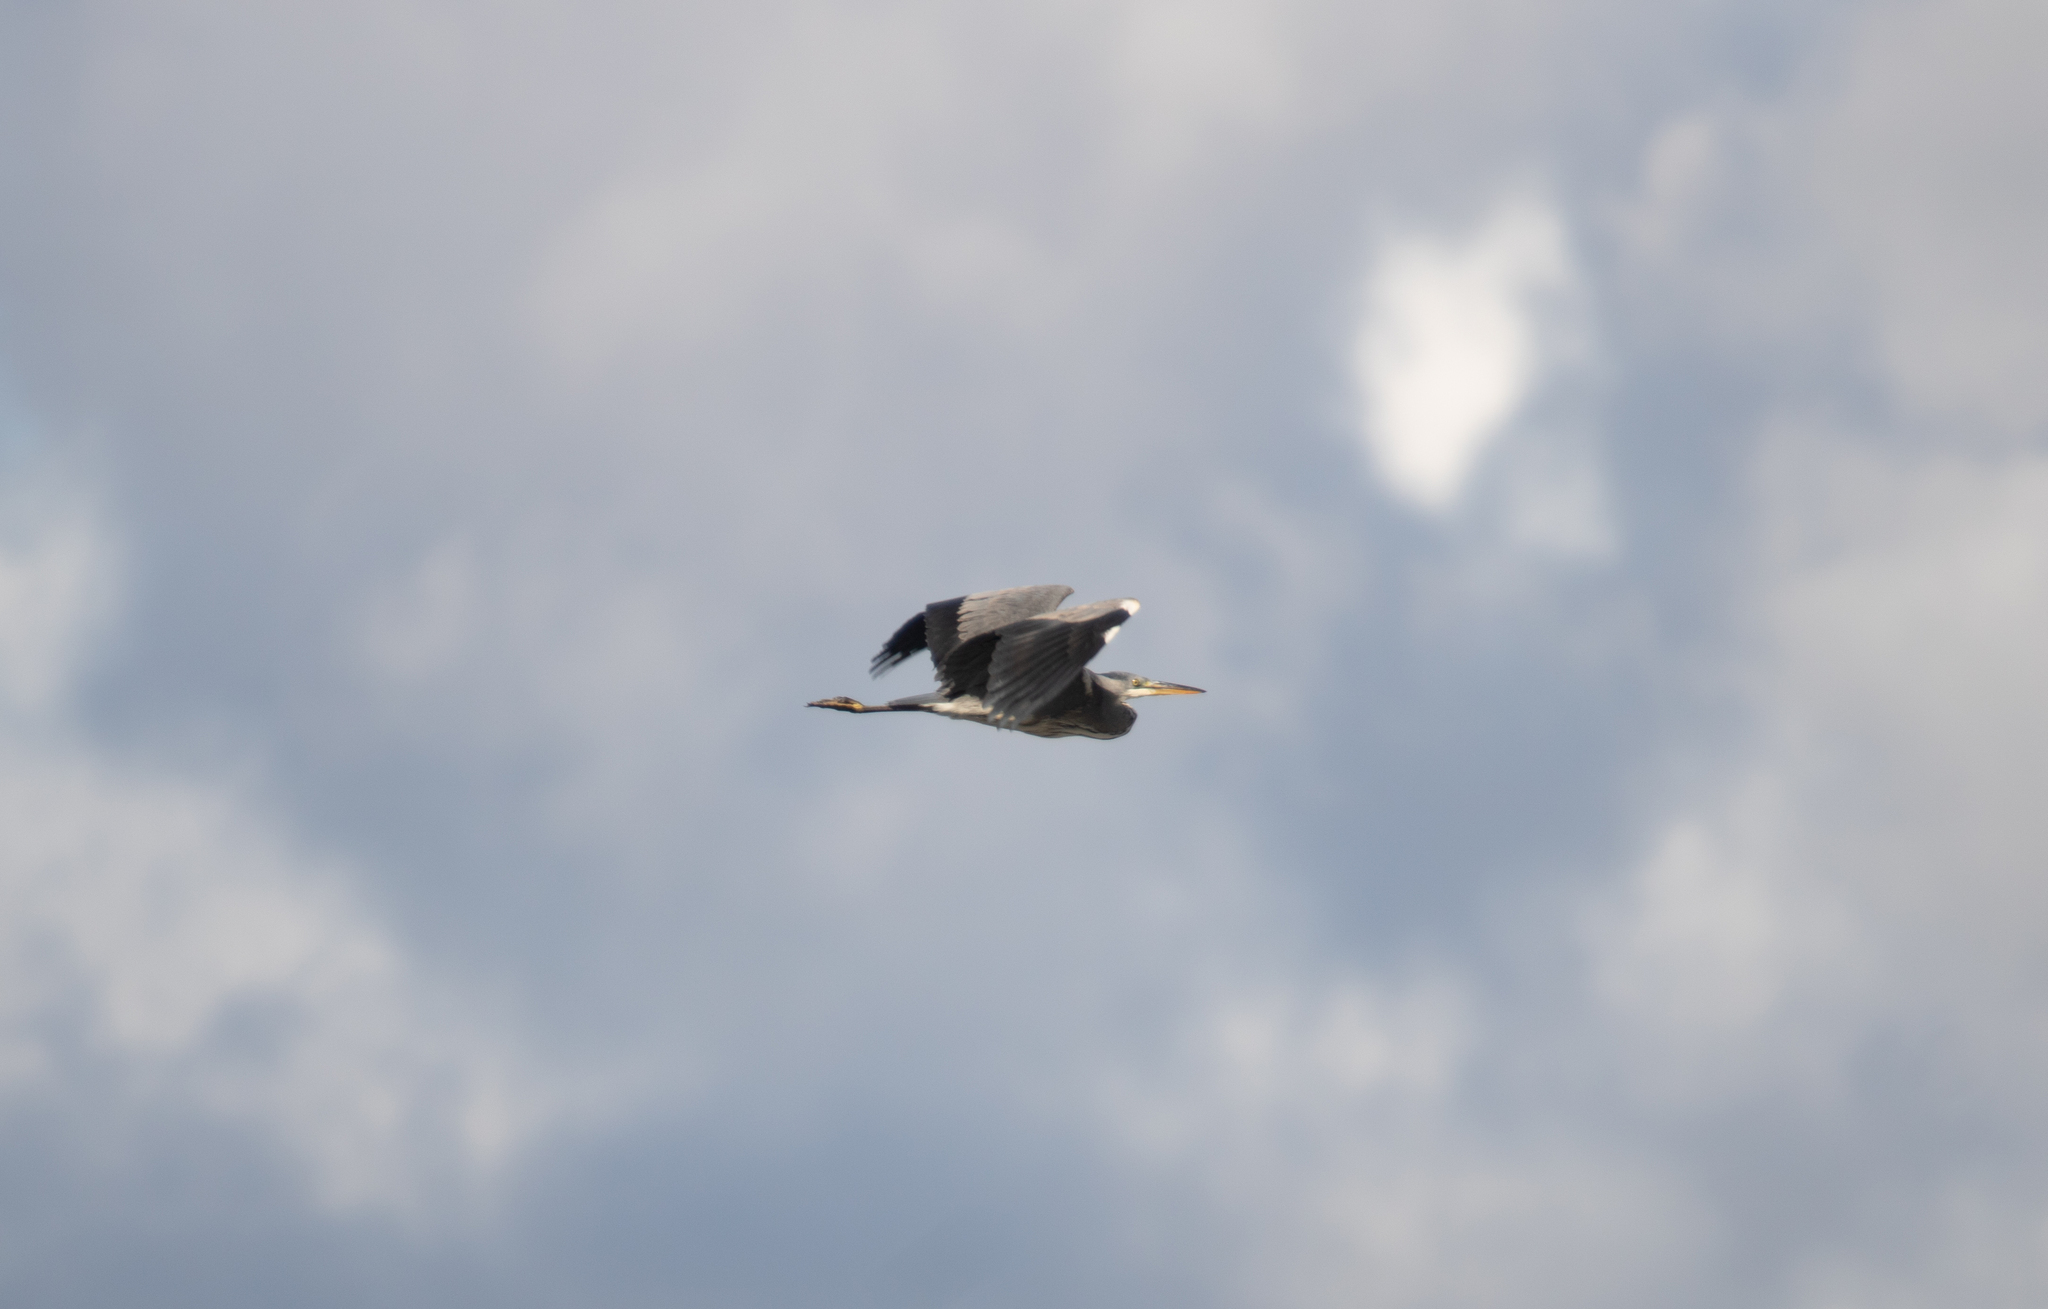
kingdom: Animalia
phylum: Chordata
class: Aves
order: Pelecaniformes
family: Ardeidae
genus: Ardea
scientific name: Ardea cinerea
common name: Grey heron
